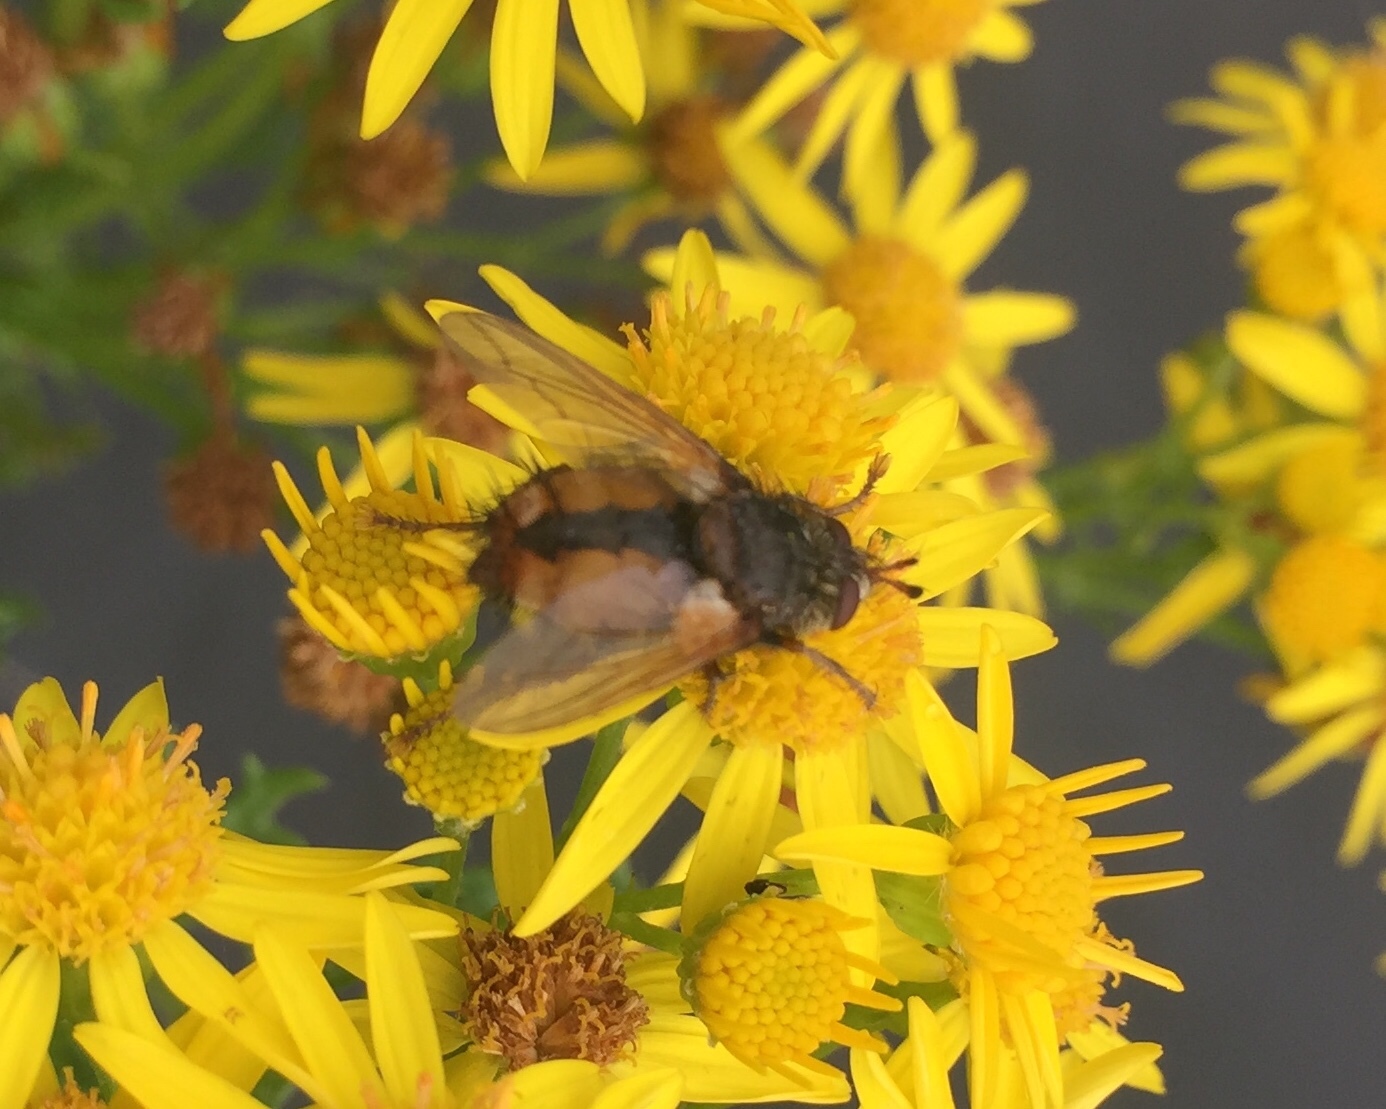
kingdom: Animalia
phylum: Arthropoda
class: Insecta
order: Diptera
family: Tachinidae
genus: Tachina
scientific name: Tachina fera
